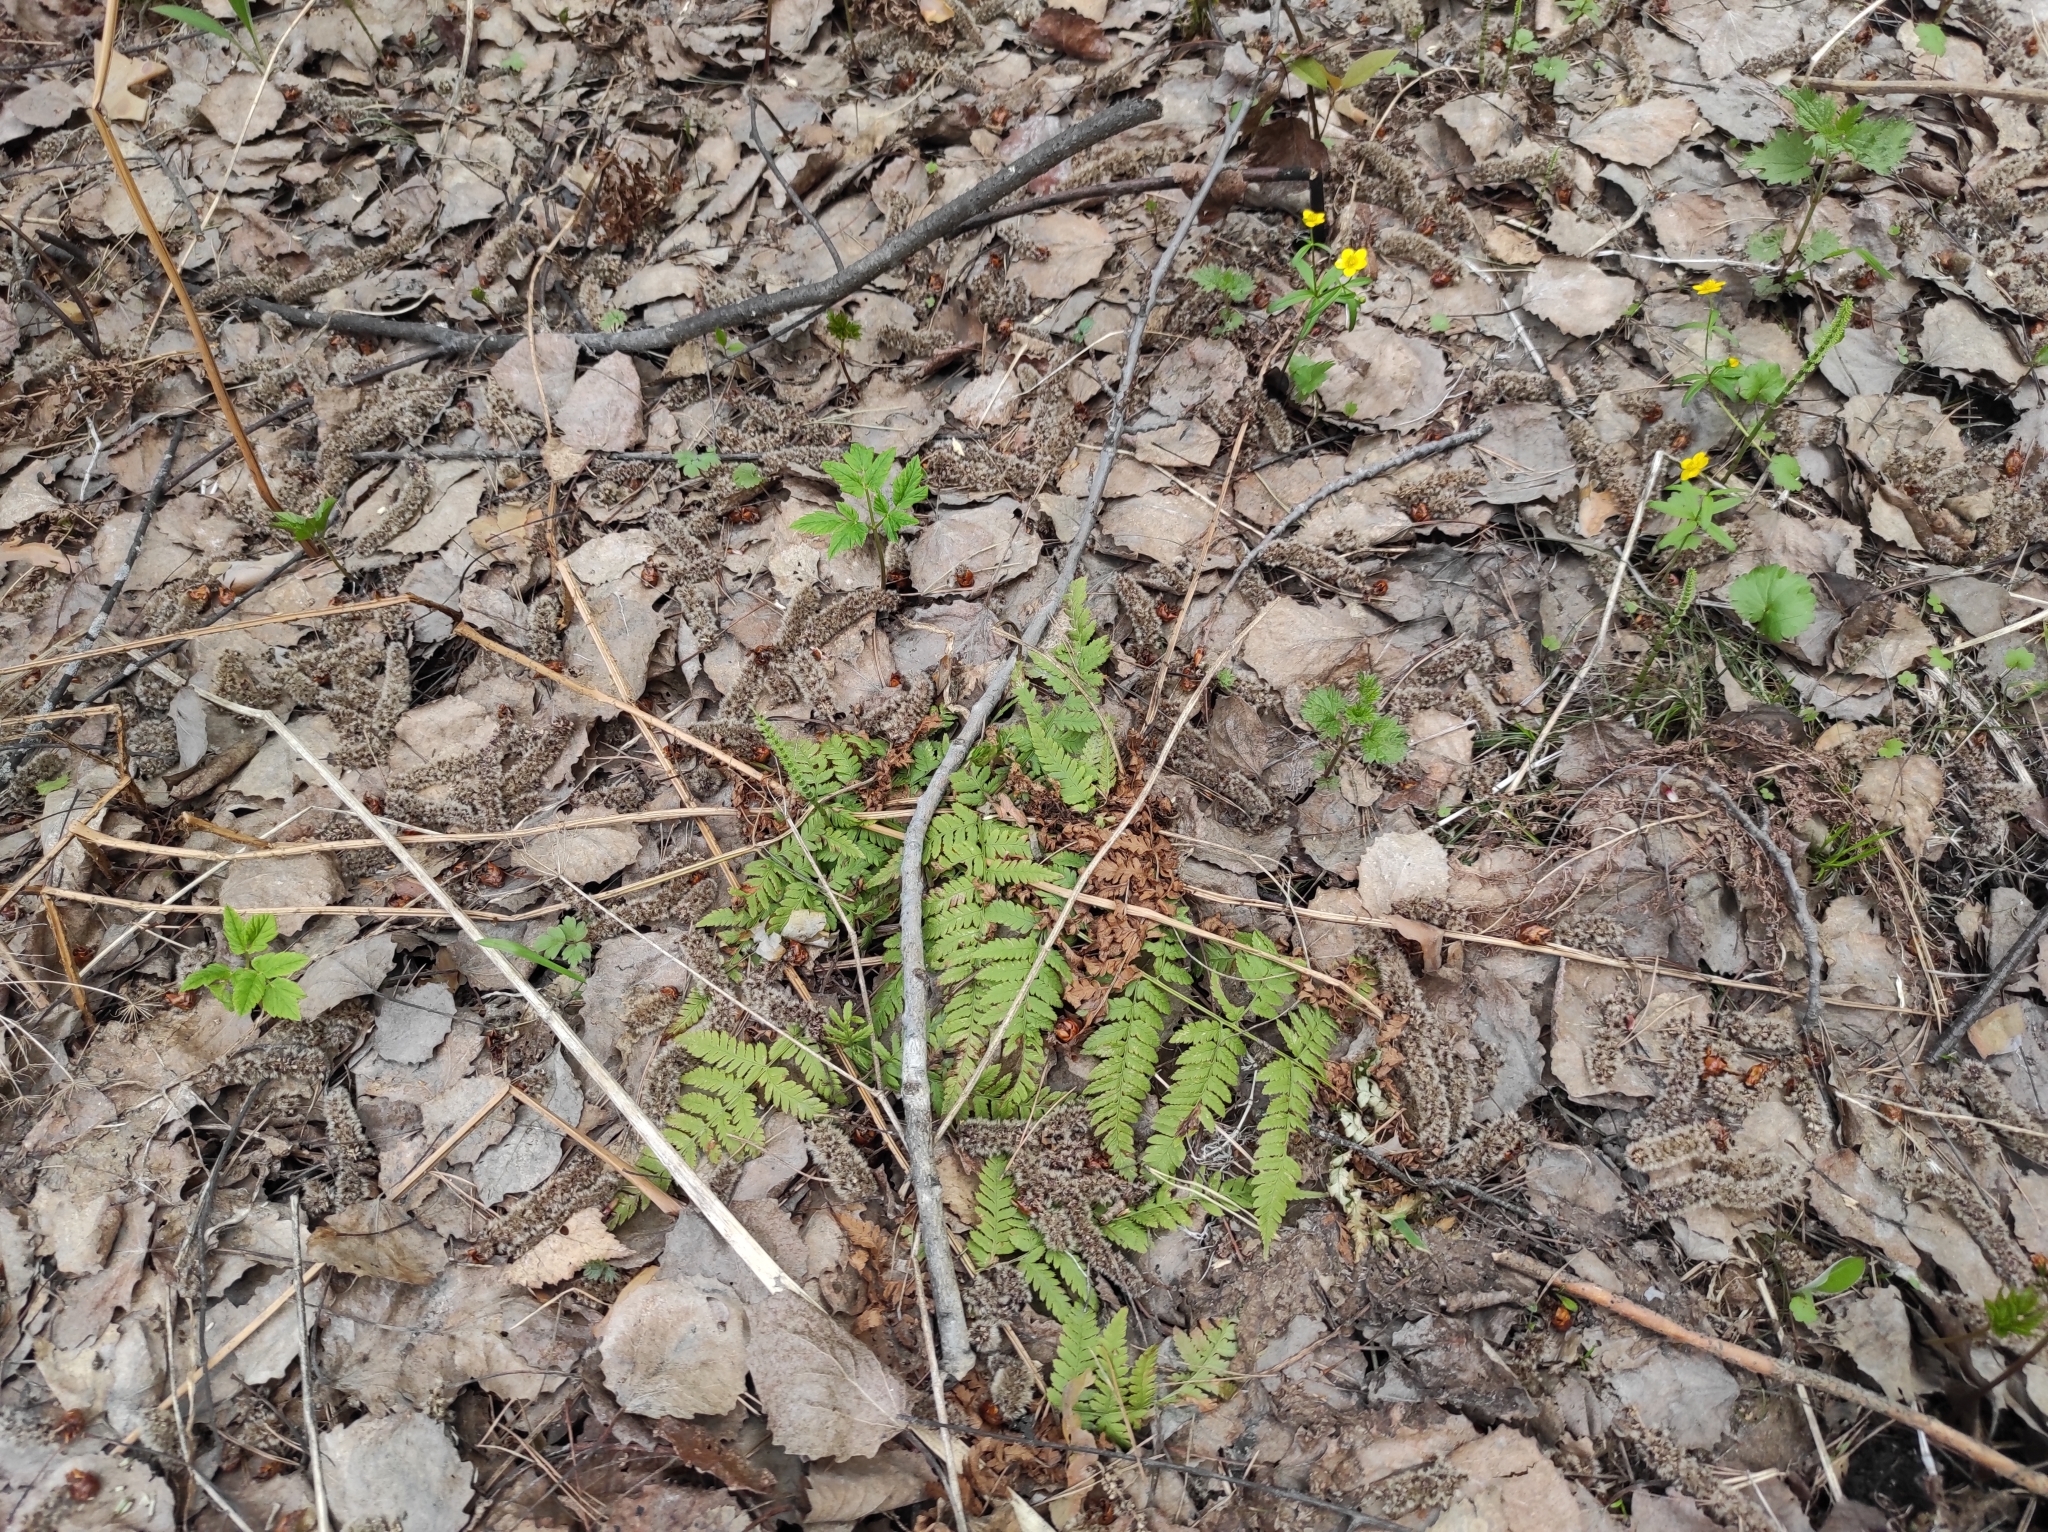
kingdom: Plantae
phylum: Tracheophyta
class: Polypodiopsida
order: Polypodiales
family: Dryopteridaceae
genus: Dryopteris
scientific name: Dryopteris carthusiana
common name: Narrow buckler-fern
